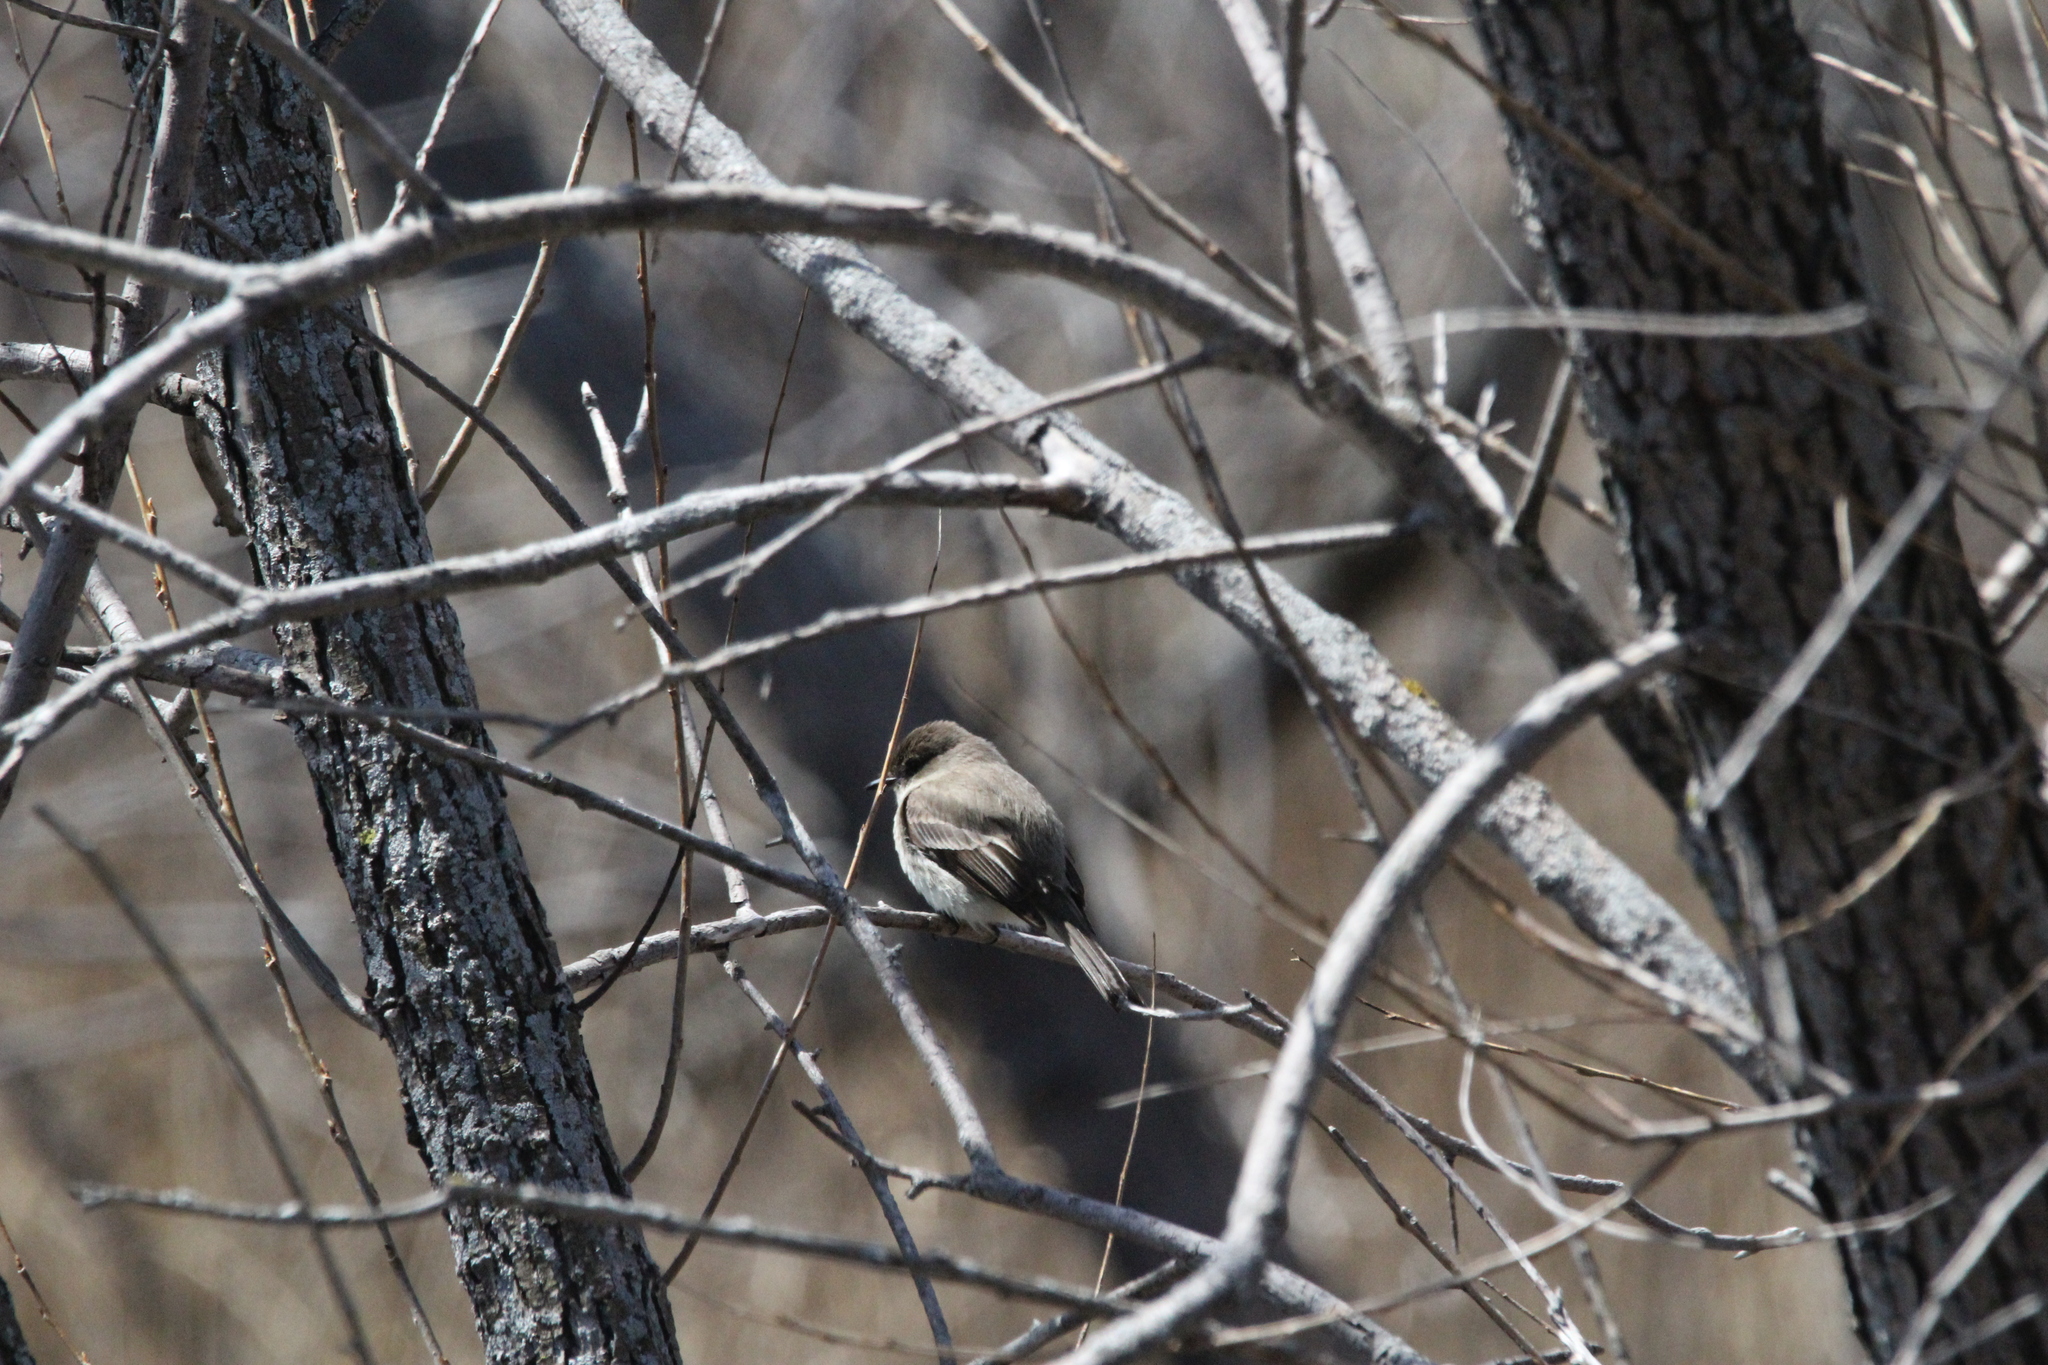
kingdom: Animalia
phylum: Chordata
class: Aves
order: Passeriformes
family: Tyrannidae
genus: Sayornis
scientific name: Sayornis phoebe
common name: Eastern phoebe
